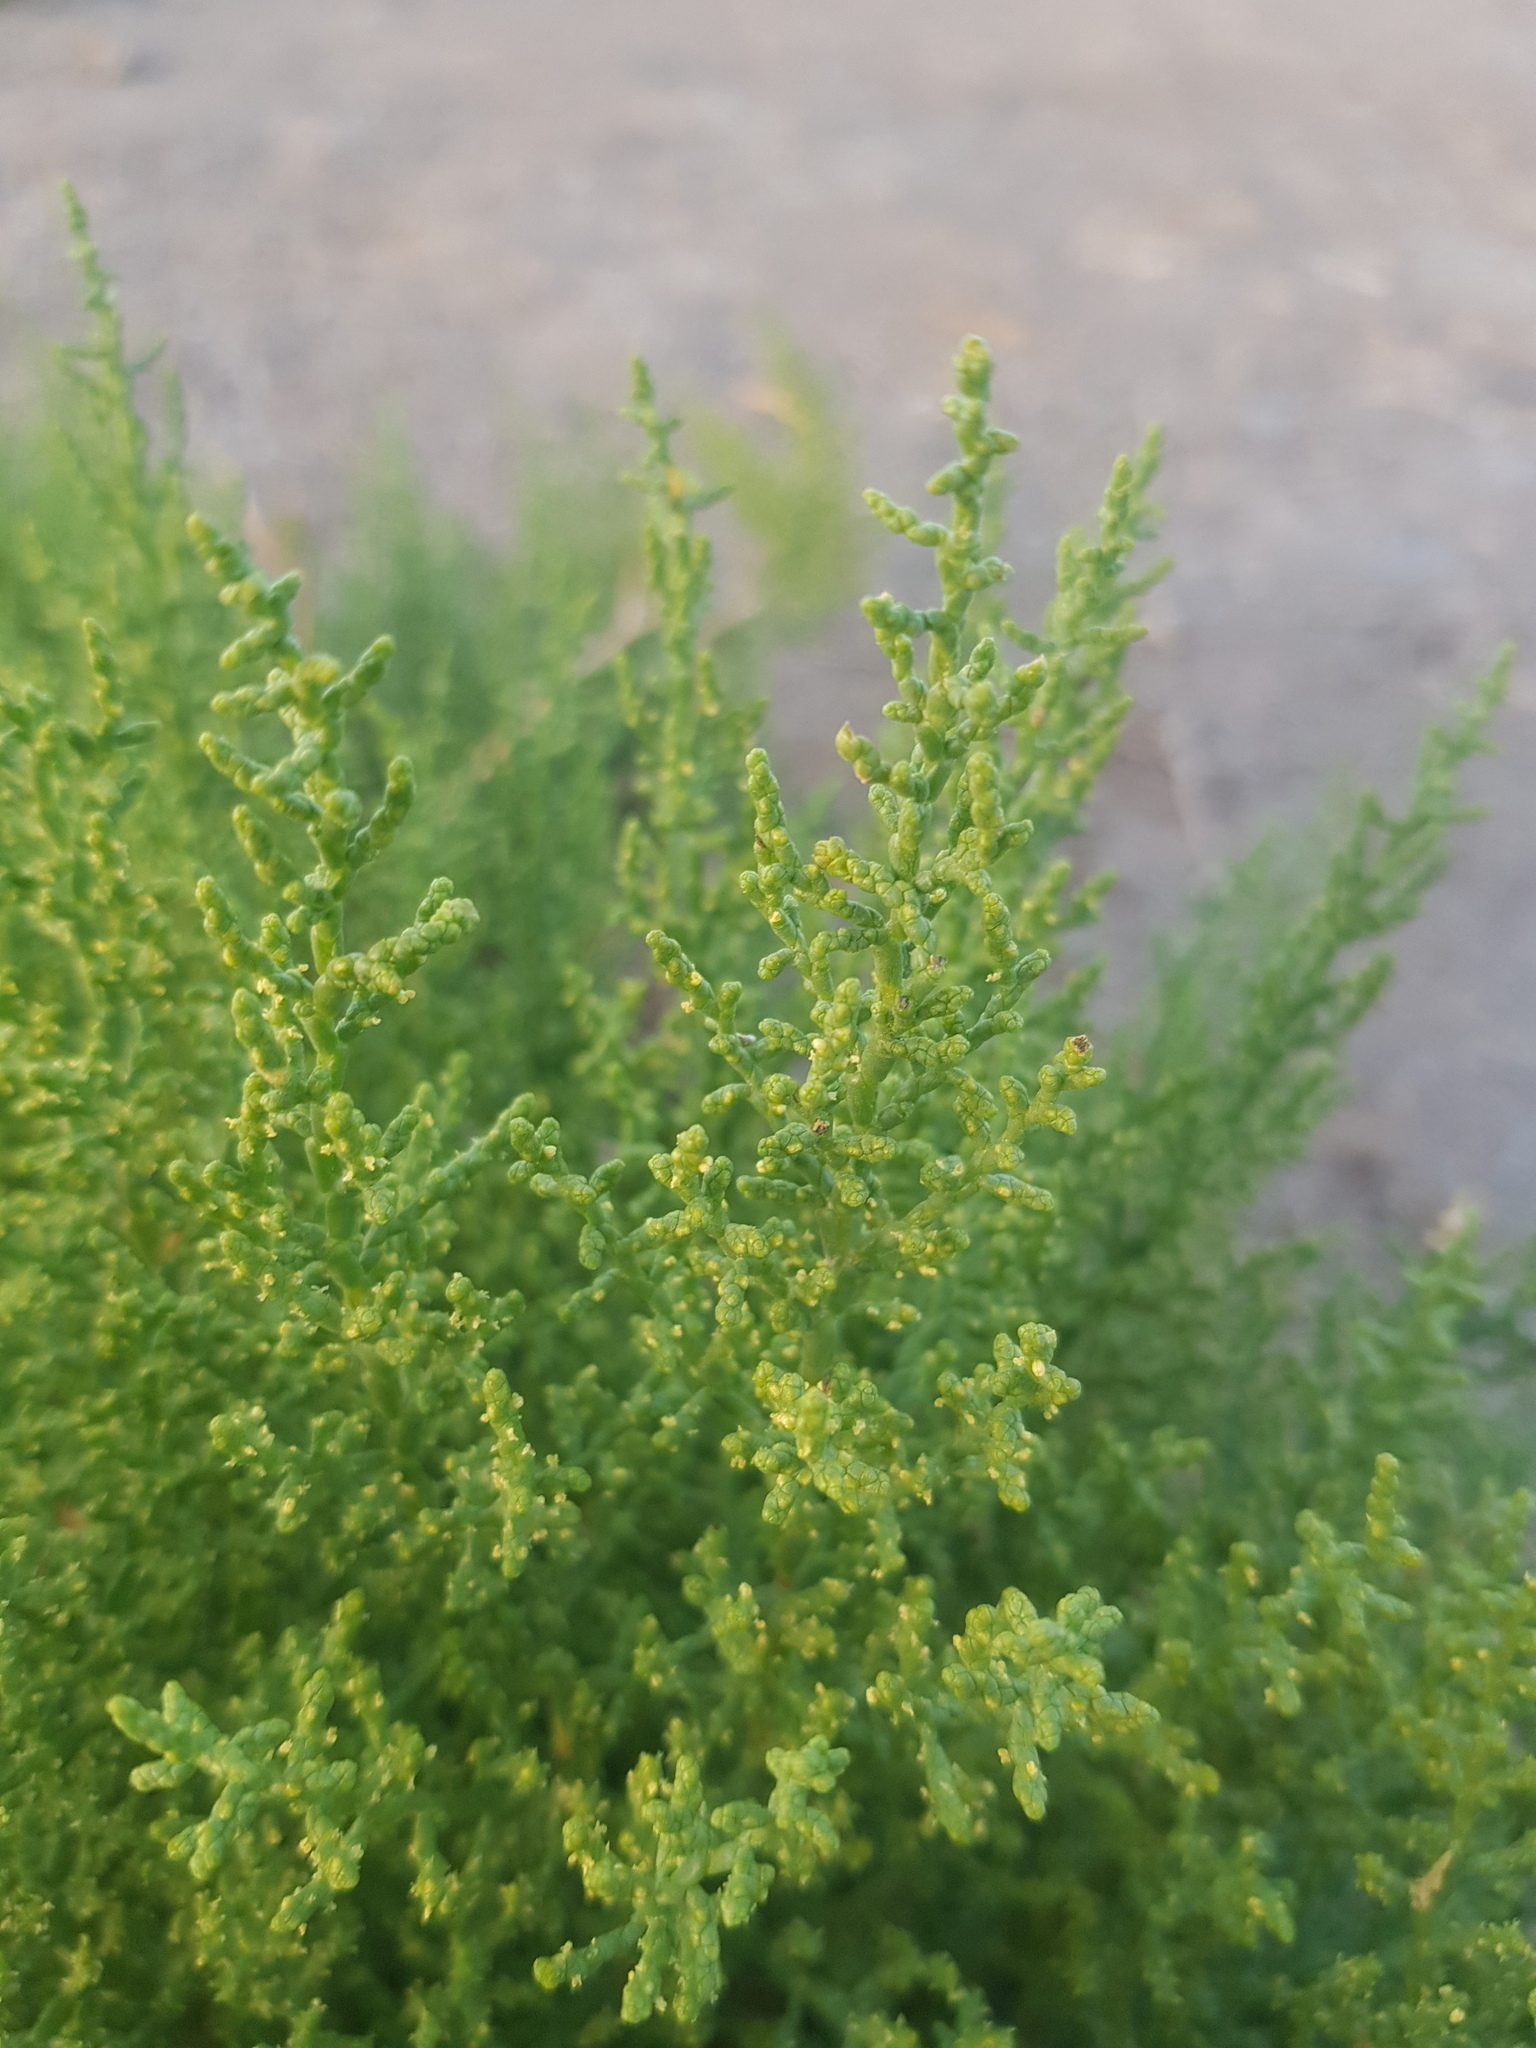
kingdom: Plantae
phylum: Tracheophyta
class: Magnoliopsida
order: Caryophyllales
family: Amaranthaceae
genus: Kalidium
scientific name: Kalidium gracile
